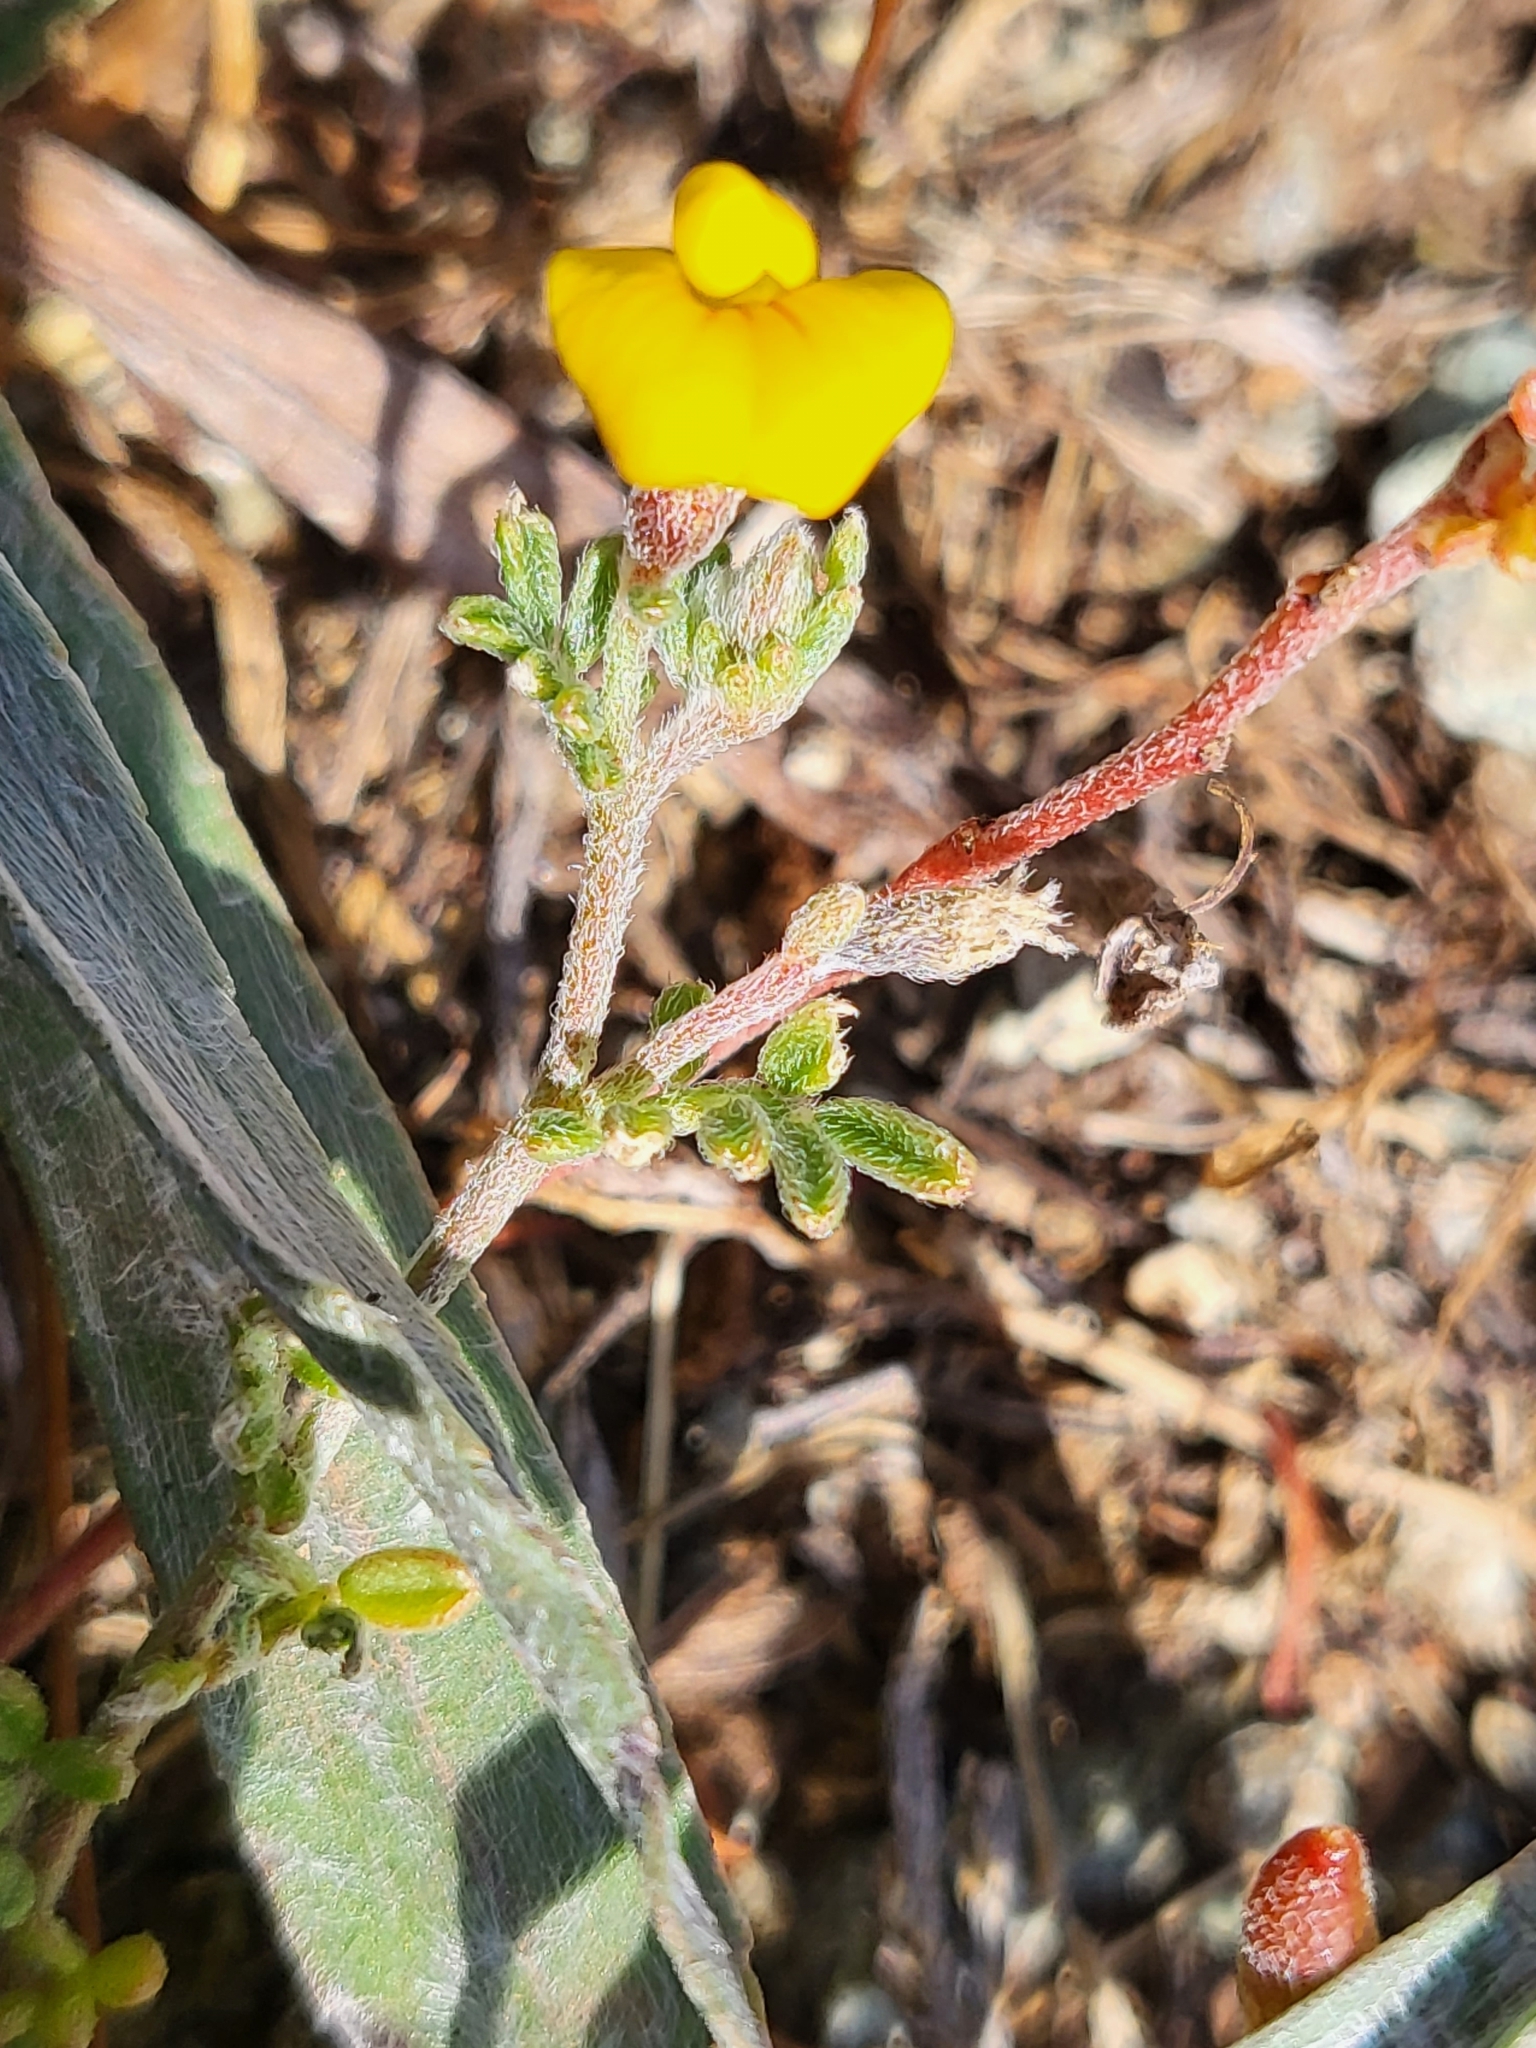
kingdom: Plantae
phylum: Tracheophyta
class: Magnoliopsida
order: Fabales
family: Fabaceae
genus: Acmispon
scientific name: Acmispon strigosus
